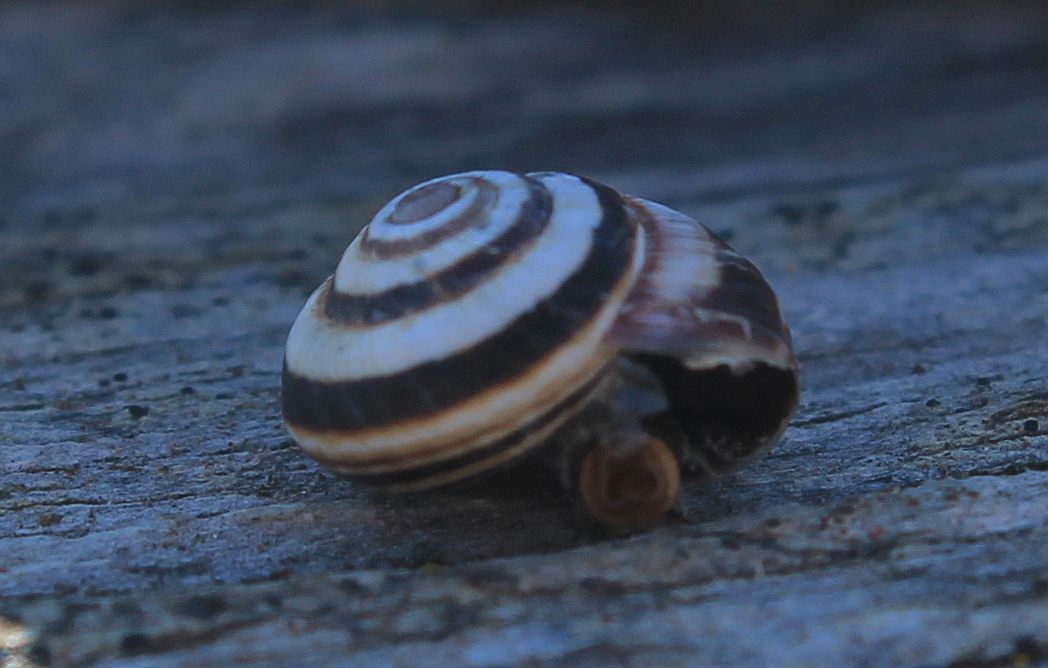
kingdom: Animalia
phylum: Mollusca
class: Gastropoda
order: Stylommatophora
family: Geomitridae
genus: Cernuella
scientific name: Cernuella virgata
